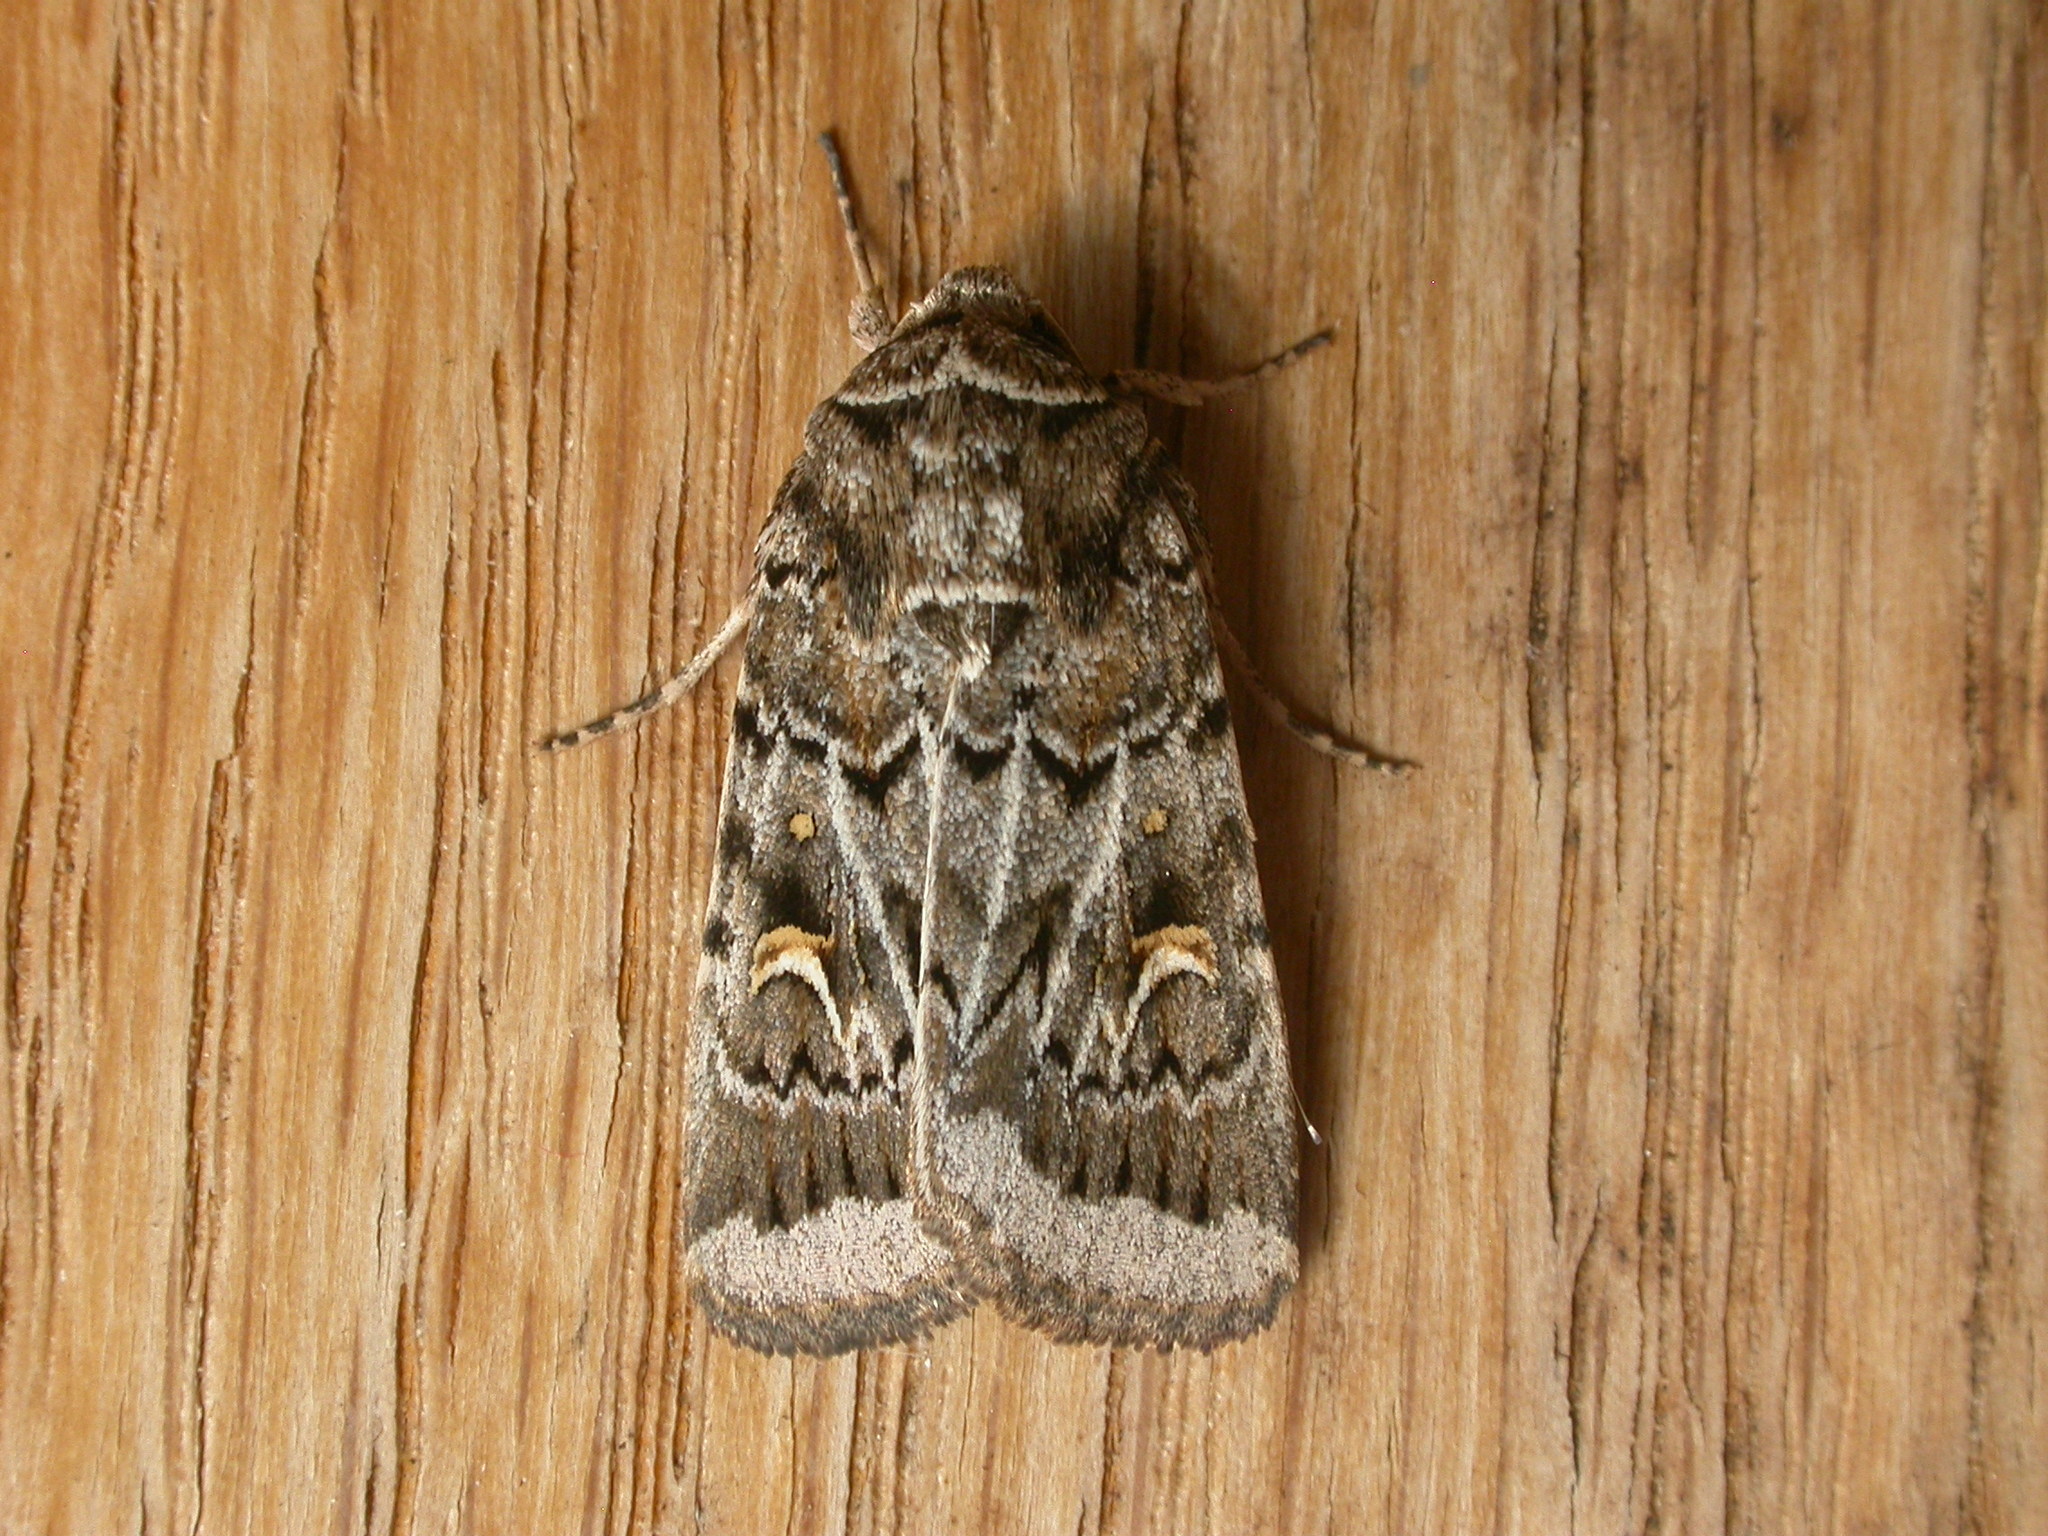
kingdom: Animalia
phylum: Arthropoda
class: Insecta
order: Lepidoptera
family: Noctuidae
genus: Proteuxoa
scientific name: Proteuxoa oxygona
